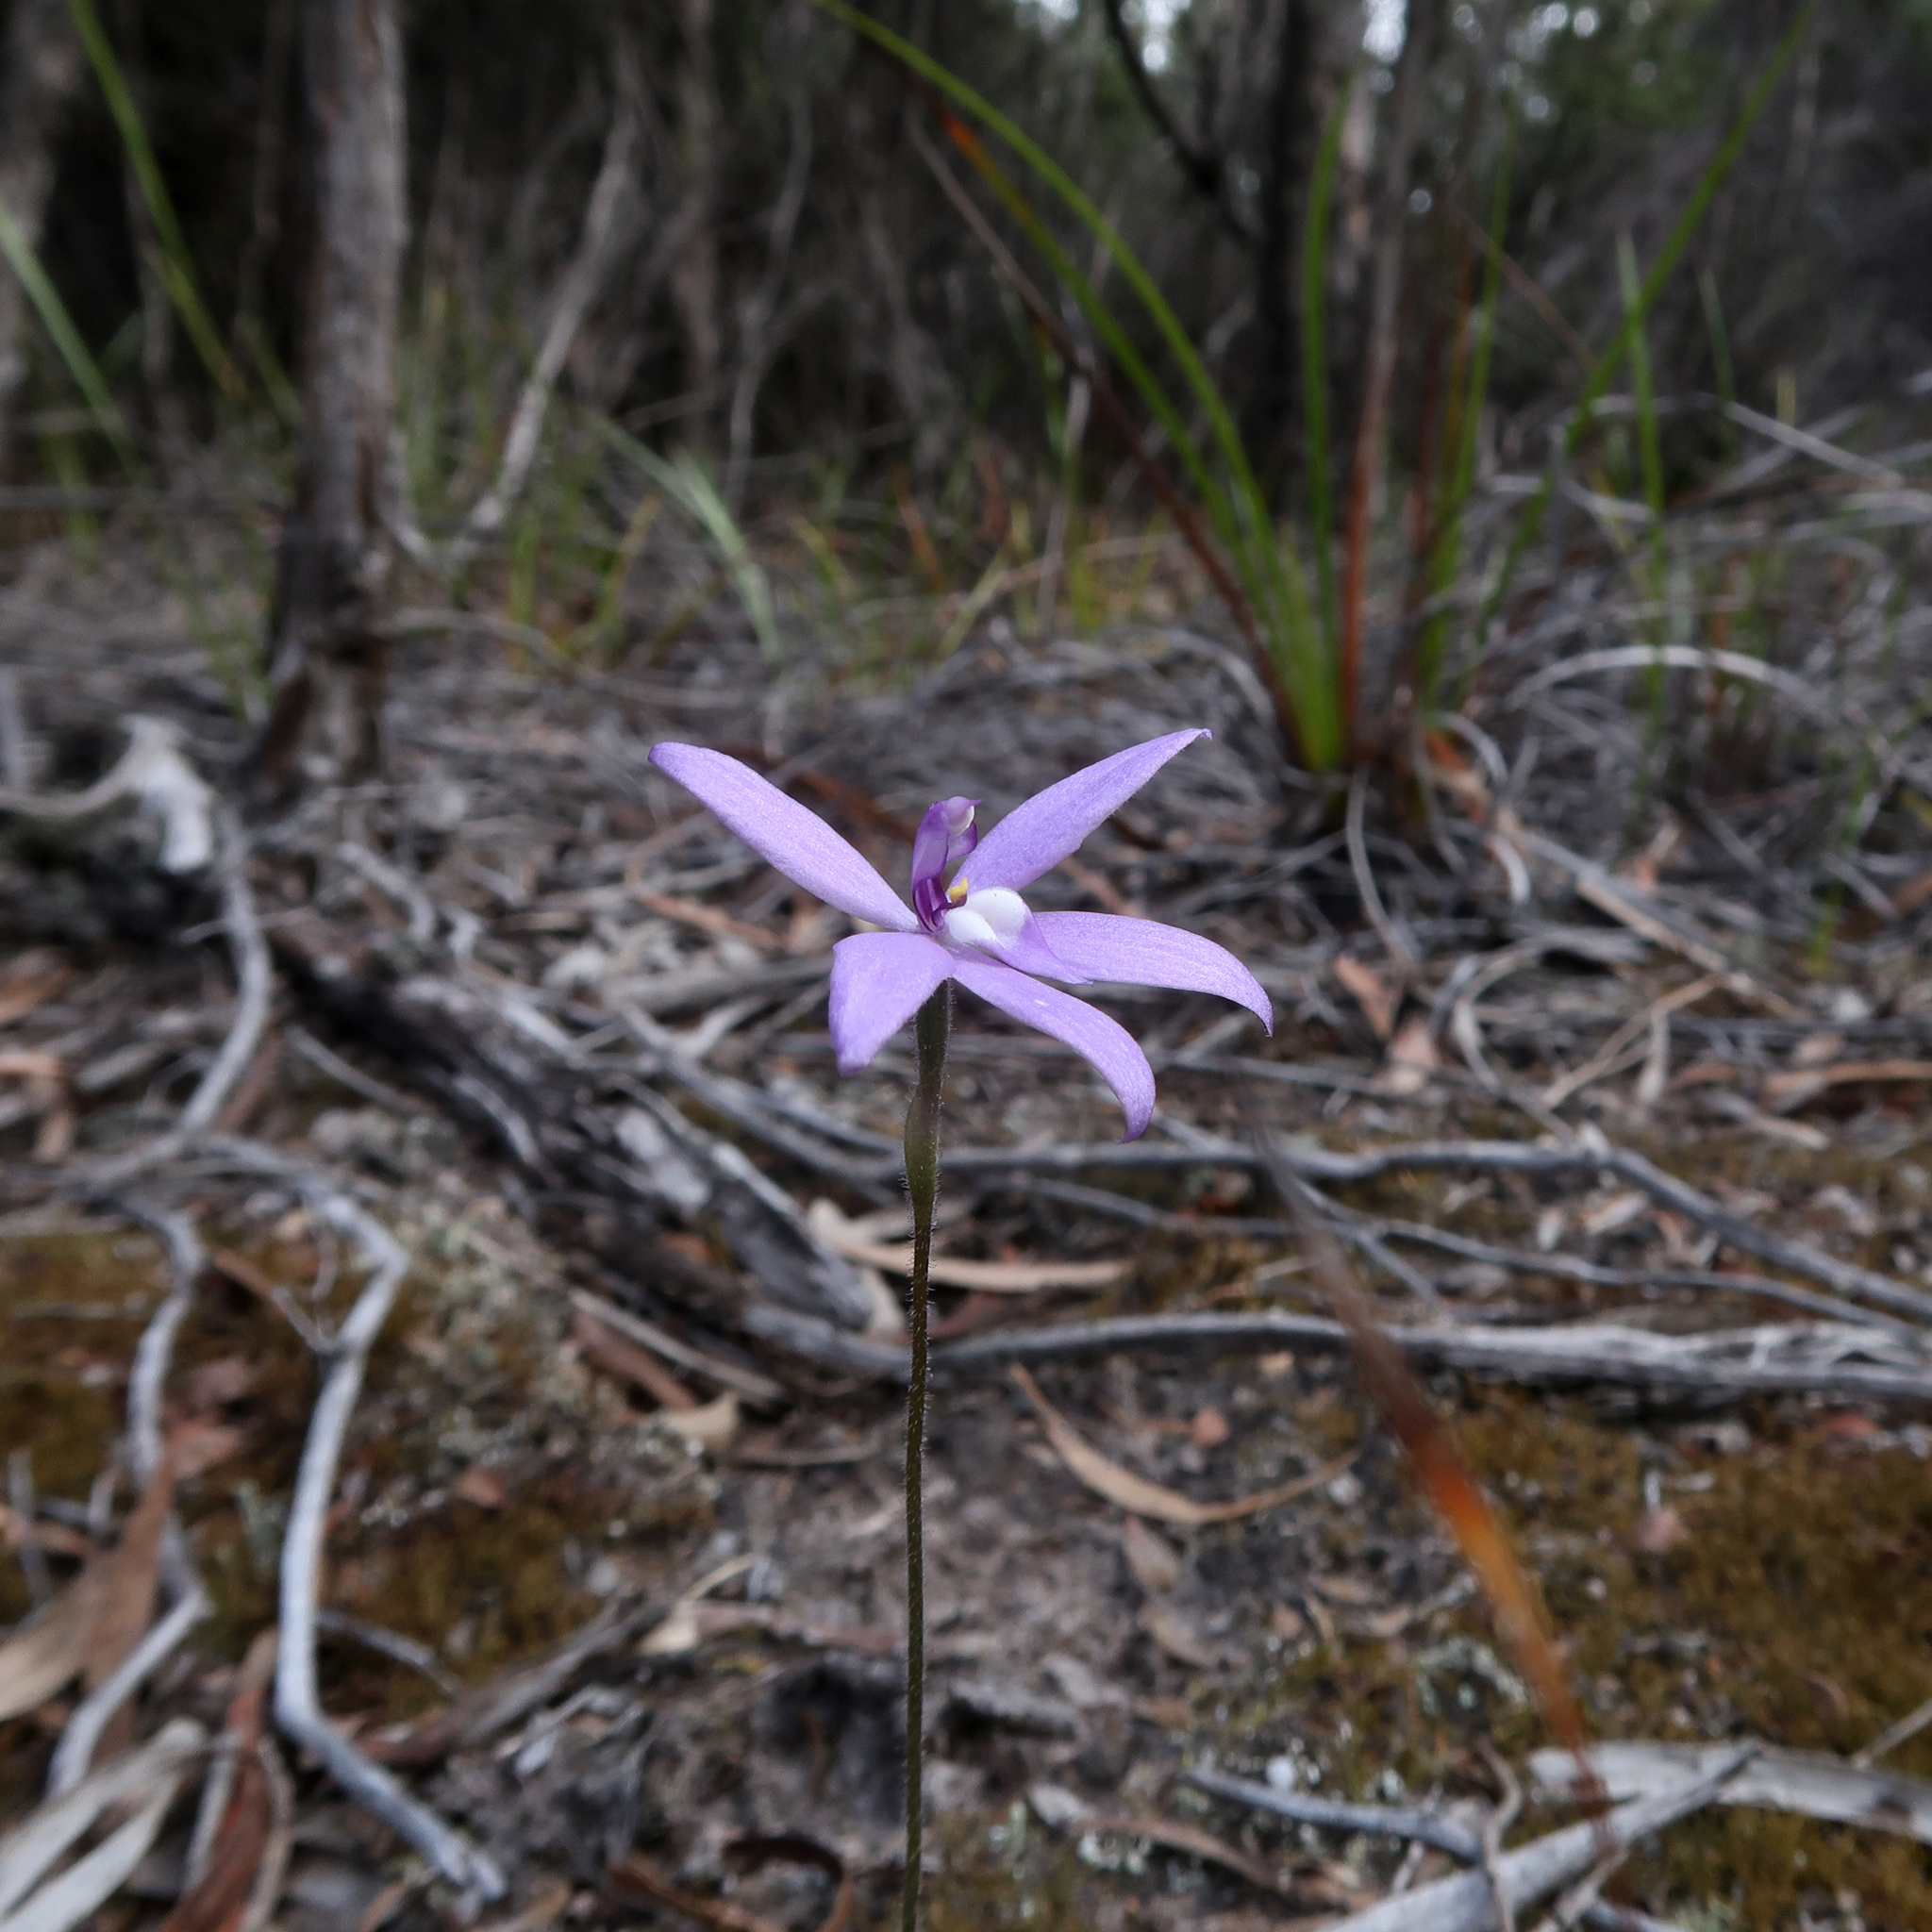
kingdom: Plantae
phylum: Tracheophyta
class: Liliopsida
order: Asparagales
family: Orchidaceae
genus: Caladenia
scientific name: Caladenia major
